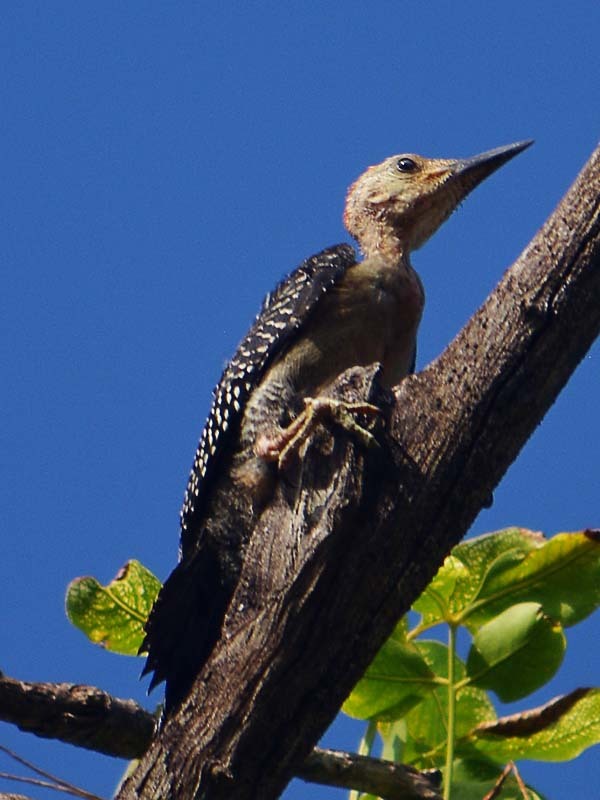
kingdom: Animalia
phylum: Chordata
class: Aves
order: Piciformes
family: Picidae
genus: Melanerpes
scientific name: Melanerpes pygmaeus
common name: Yucatan woodpecker
